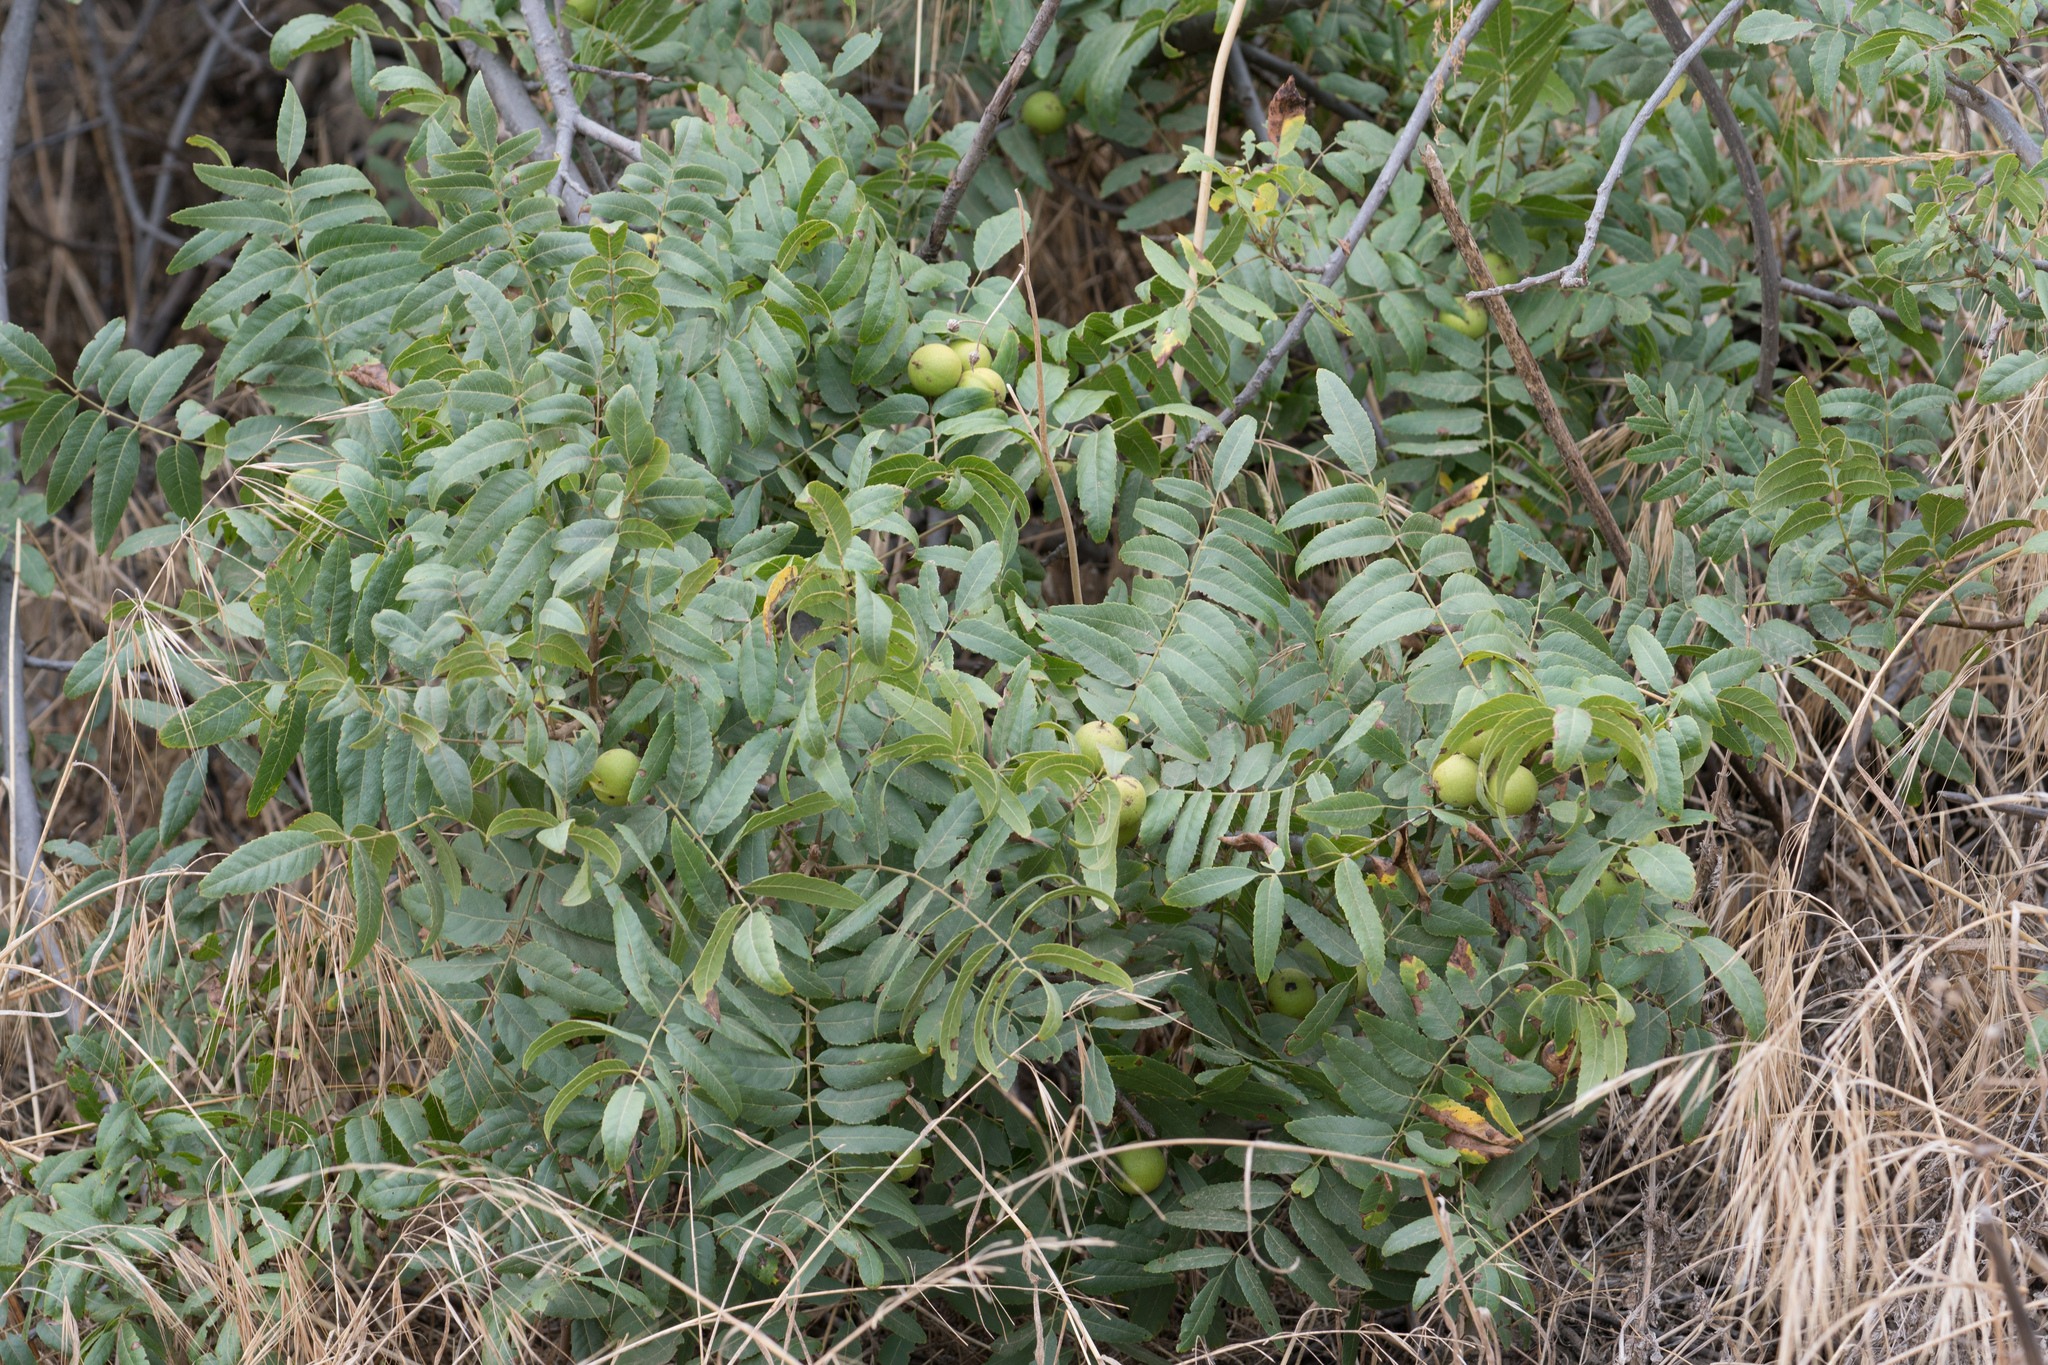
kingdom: Plantae
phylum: Tracheophyta
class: Magnoliopsida
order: Fagales
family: Juglandaceae
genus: Juglans
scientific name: Juglans californica
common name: Southern california black walnut
